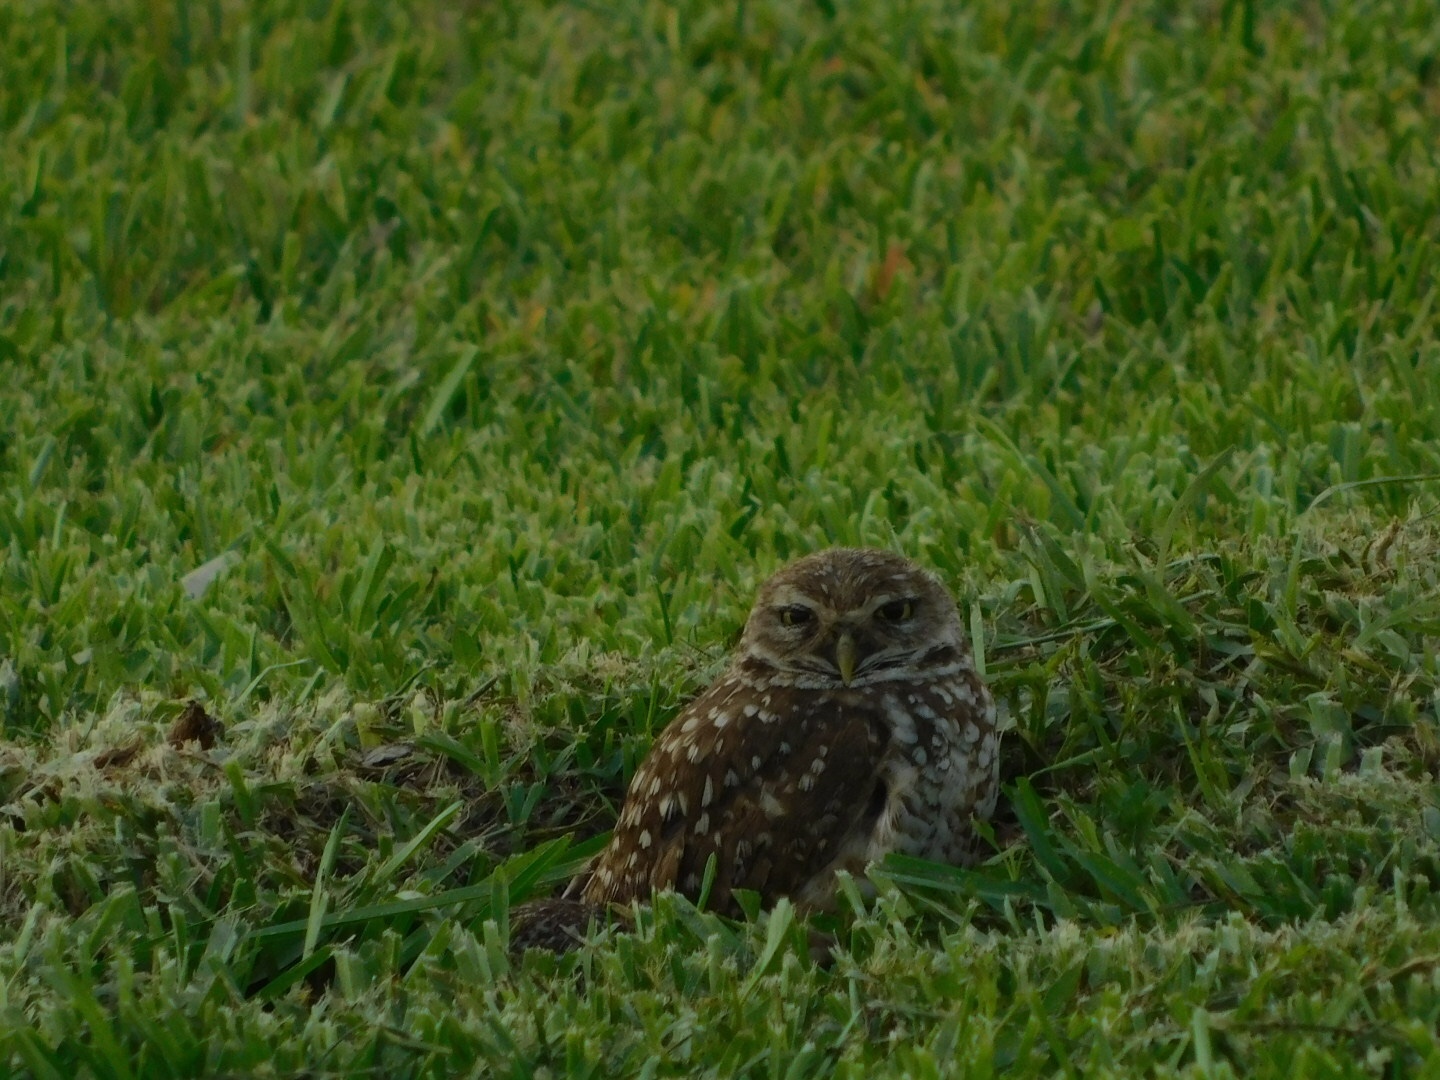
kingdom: Animalia
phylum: Chordata
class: Aves
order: Strigiformes
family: Strigidae
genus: Athene
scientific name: Athene cunicularia
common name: Burrowing owl
